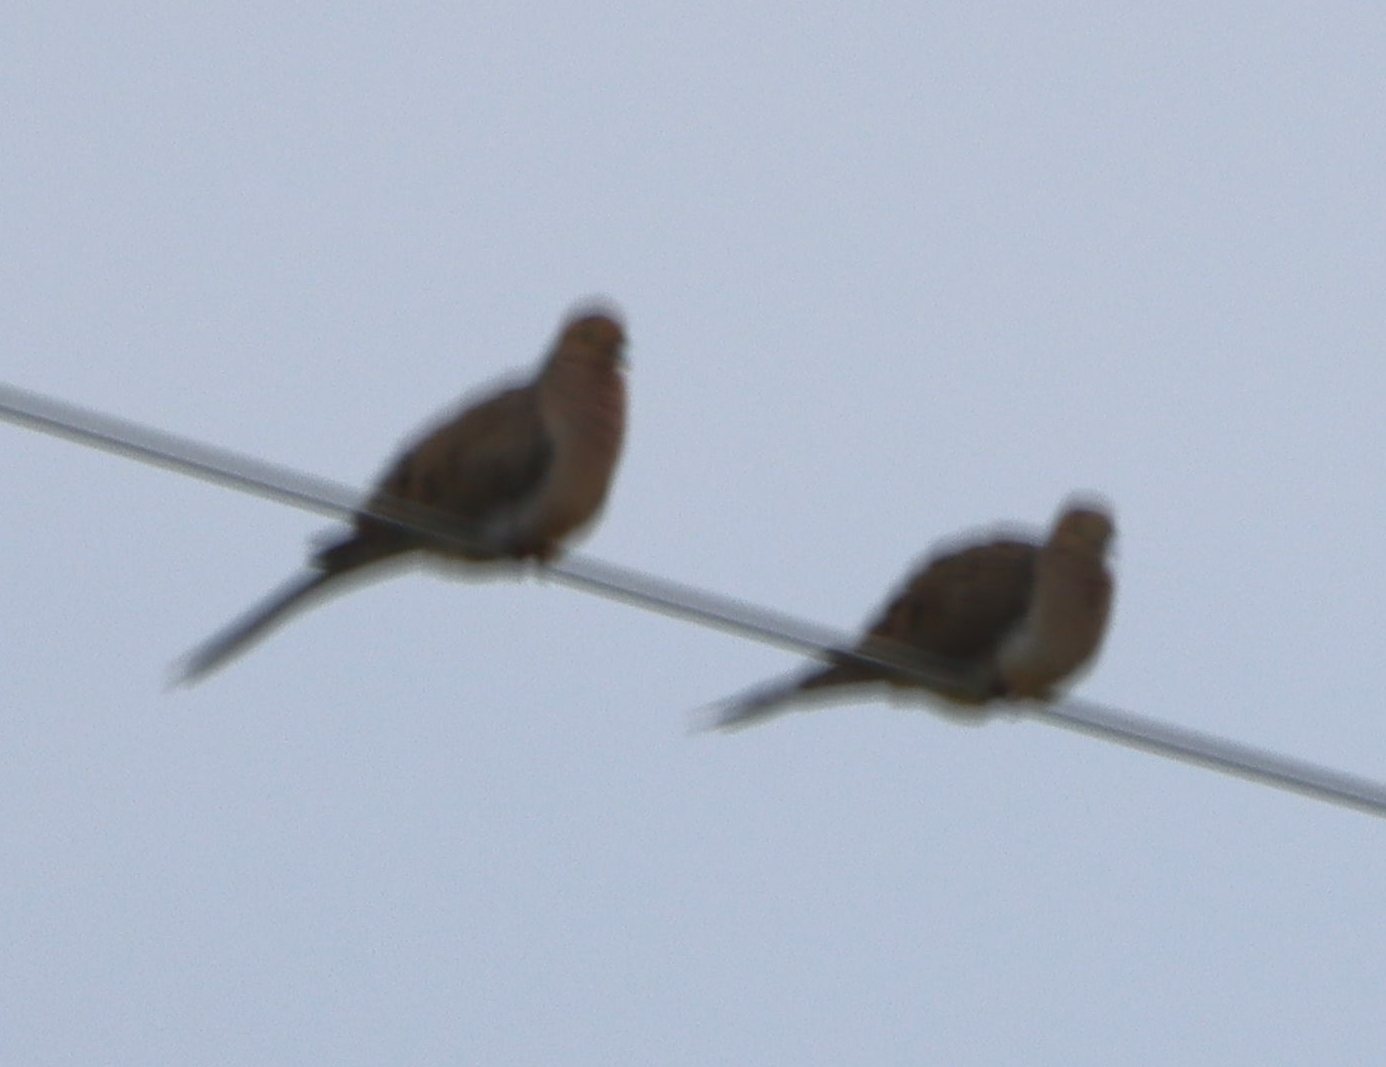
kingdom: Animalia
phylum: Chordata
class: Aves
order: Columbiformes
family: Columbidae
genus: Zenaida
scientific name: Zenaida macroura
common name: Mourning dove
